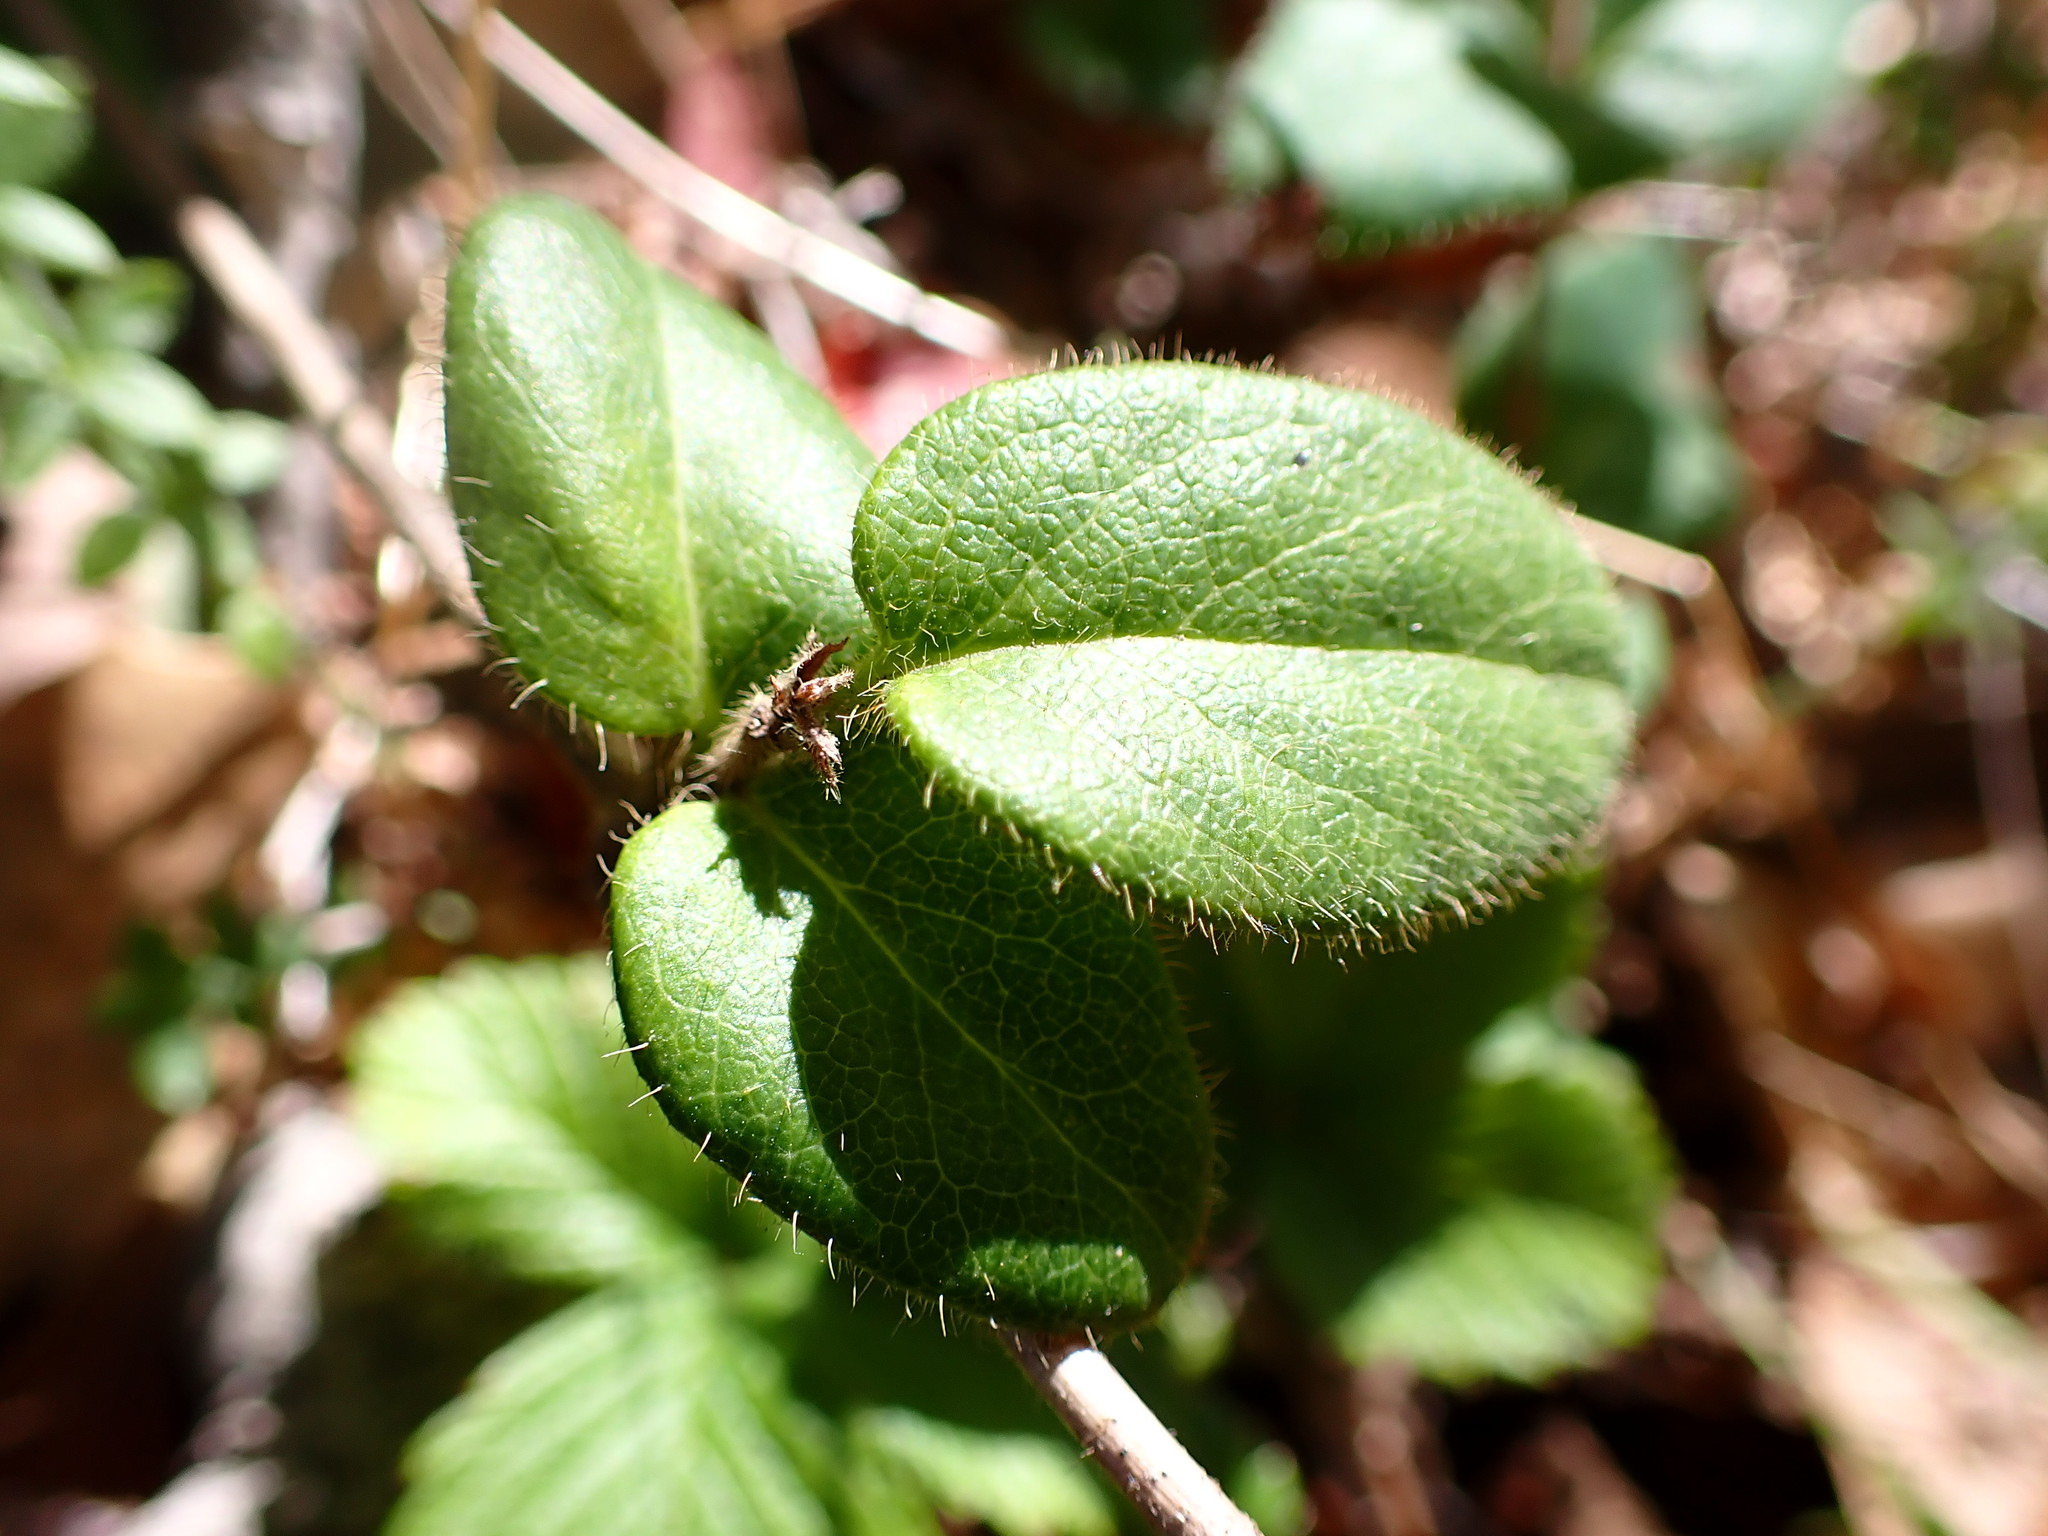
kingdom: Animalia
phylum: Arthropoda
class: Insecta
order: Diptera
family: Cecidomyiidae
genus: Lonicerae
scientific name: Lonicerae russoi
